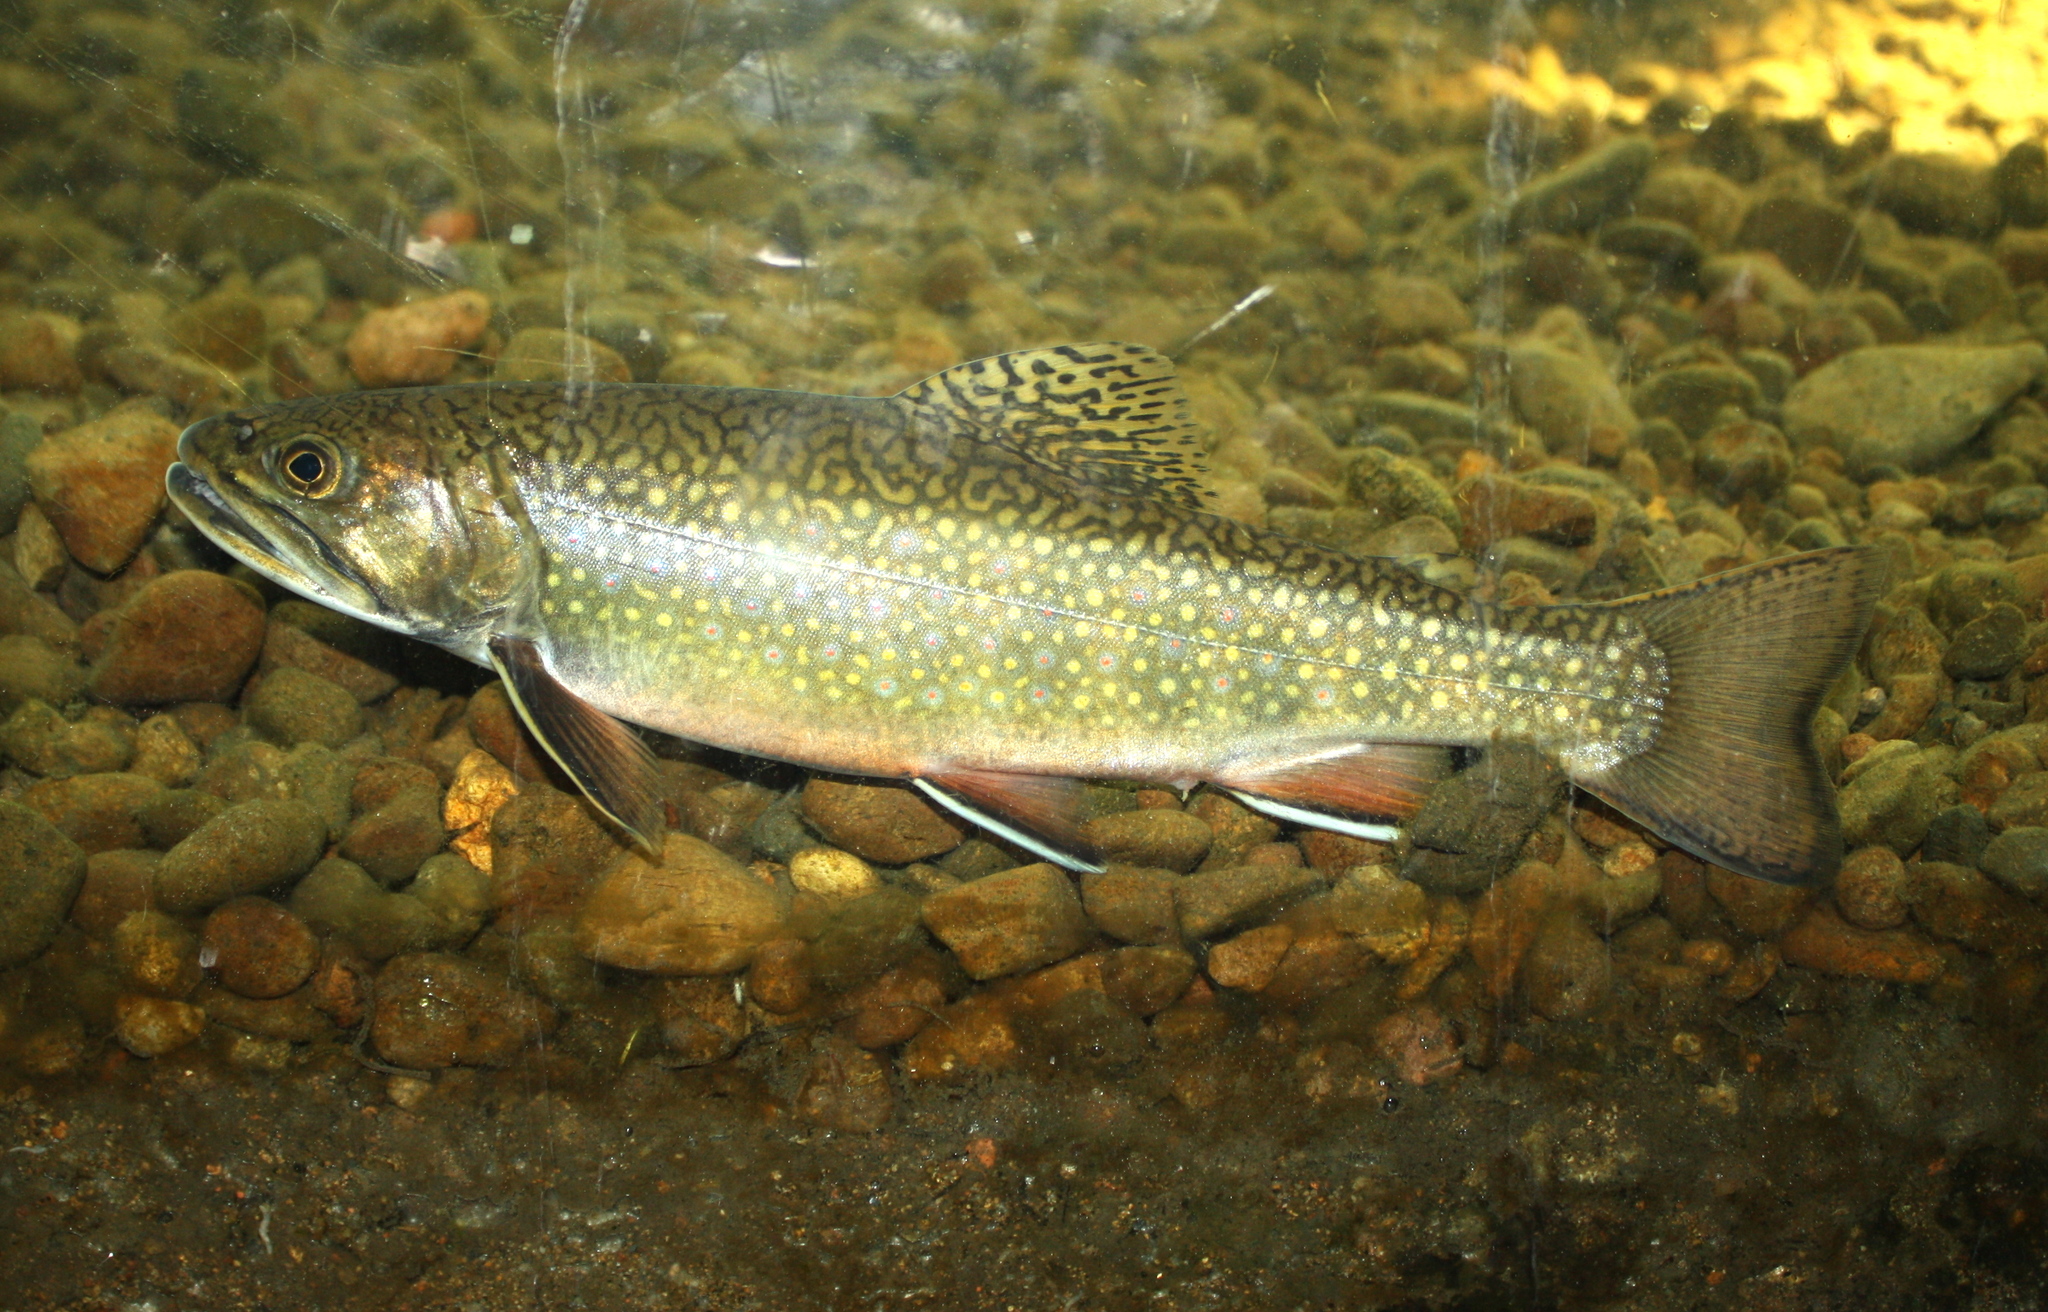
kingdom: Animalia
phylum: Chordata
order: Salmoniformes
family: Salmonidae
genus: Salvelinus
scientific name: Salvelinus fontinalis
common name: Brook trout
